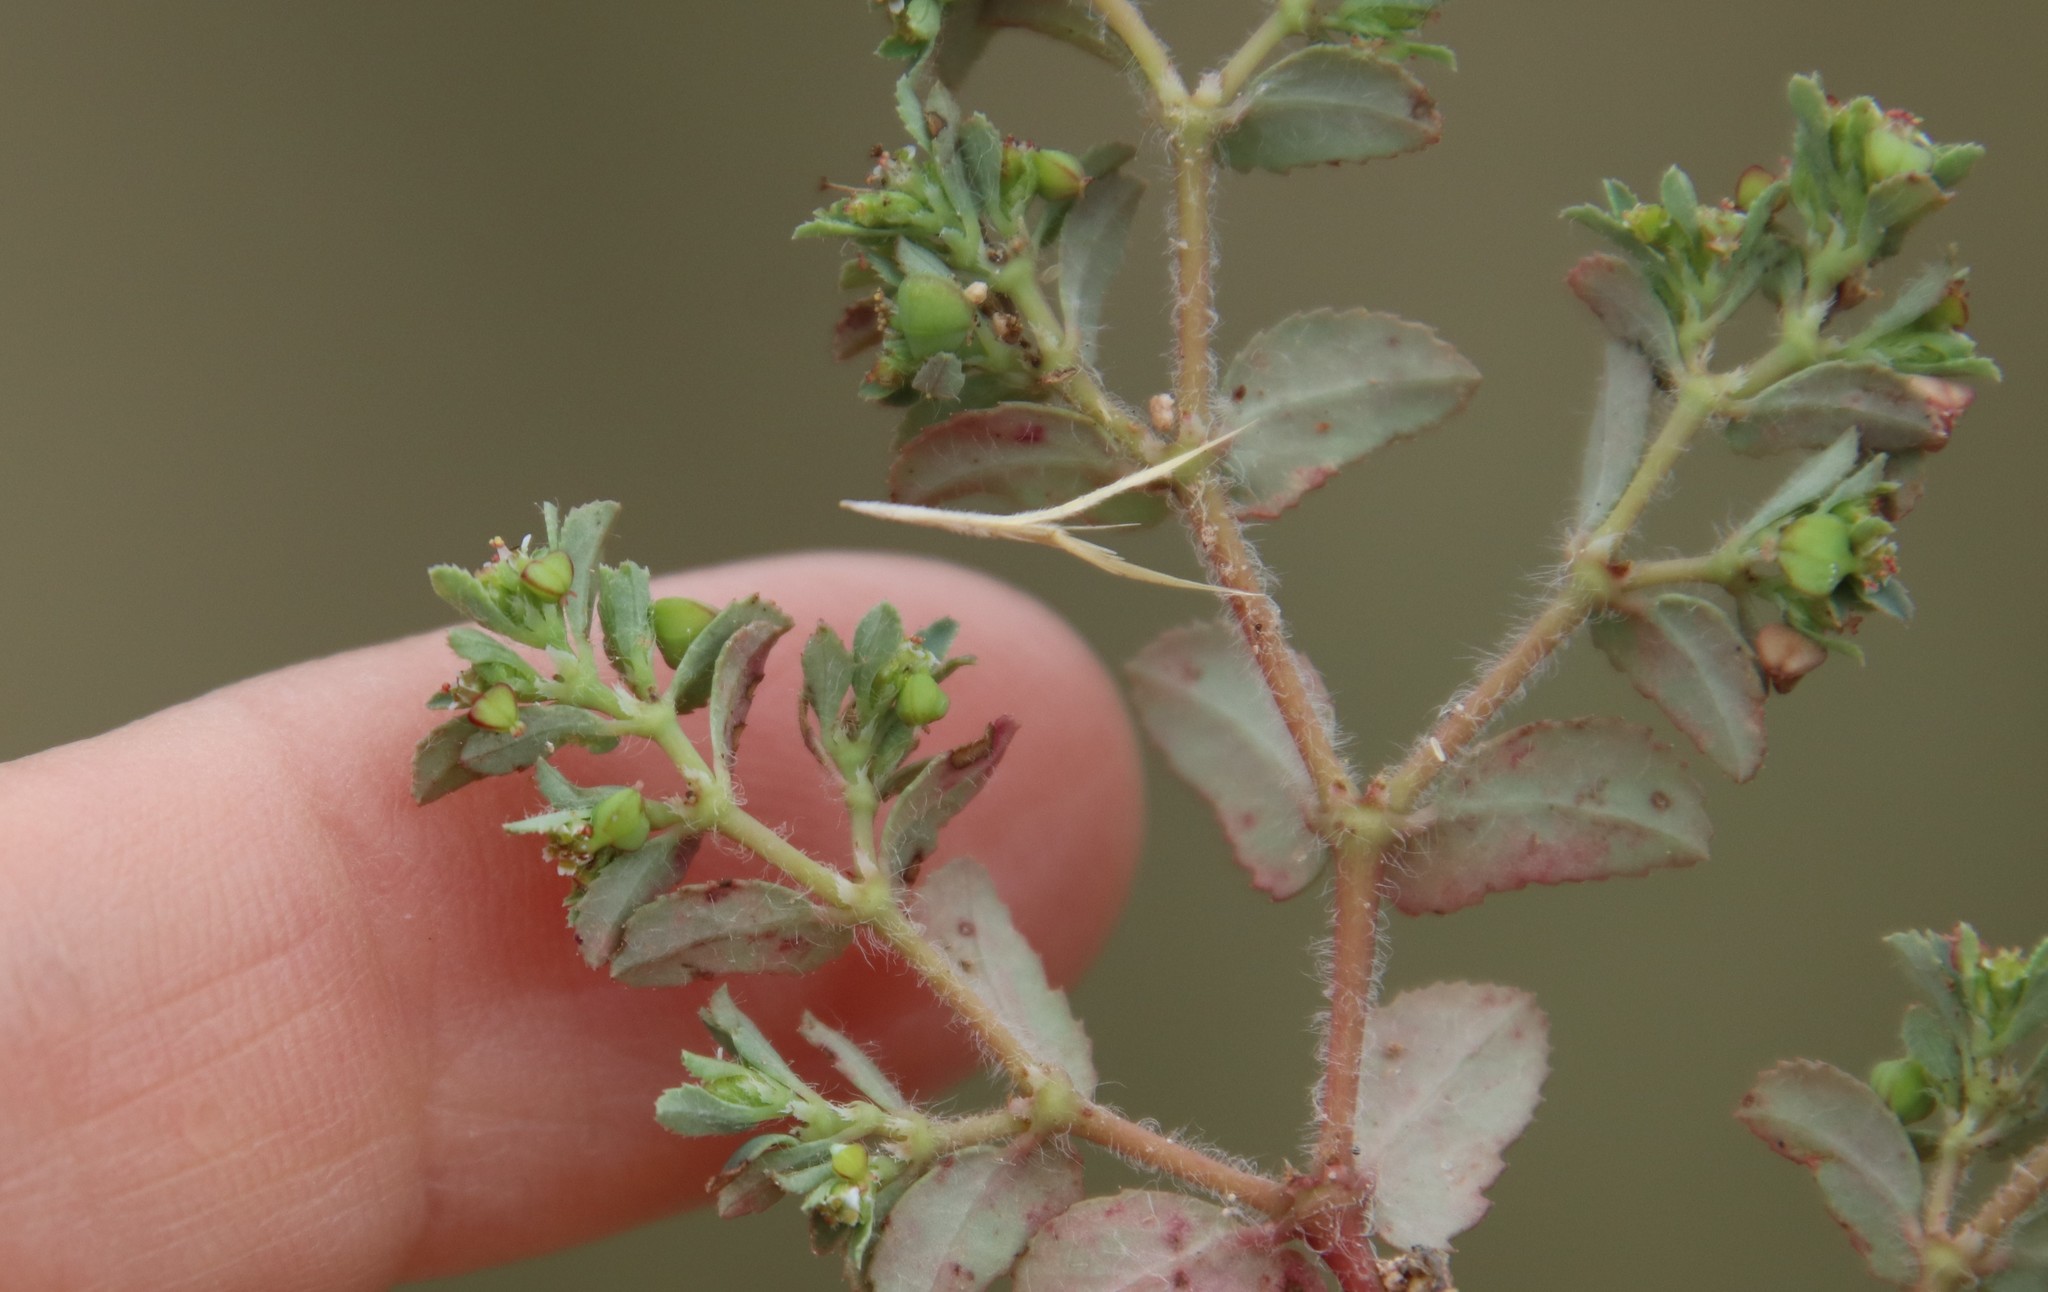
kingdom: Plantae
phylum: Tracheophyta
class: Magnoliopsida
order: Malpighiales
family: Euphorbiaceae
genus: Euphorbia
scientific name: Euphorbia serrula
